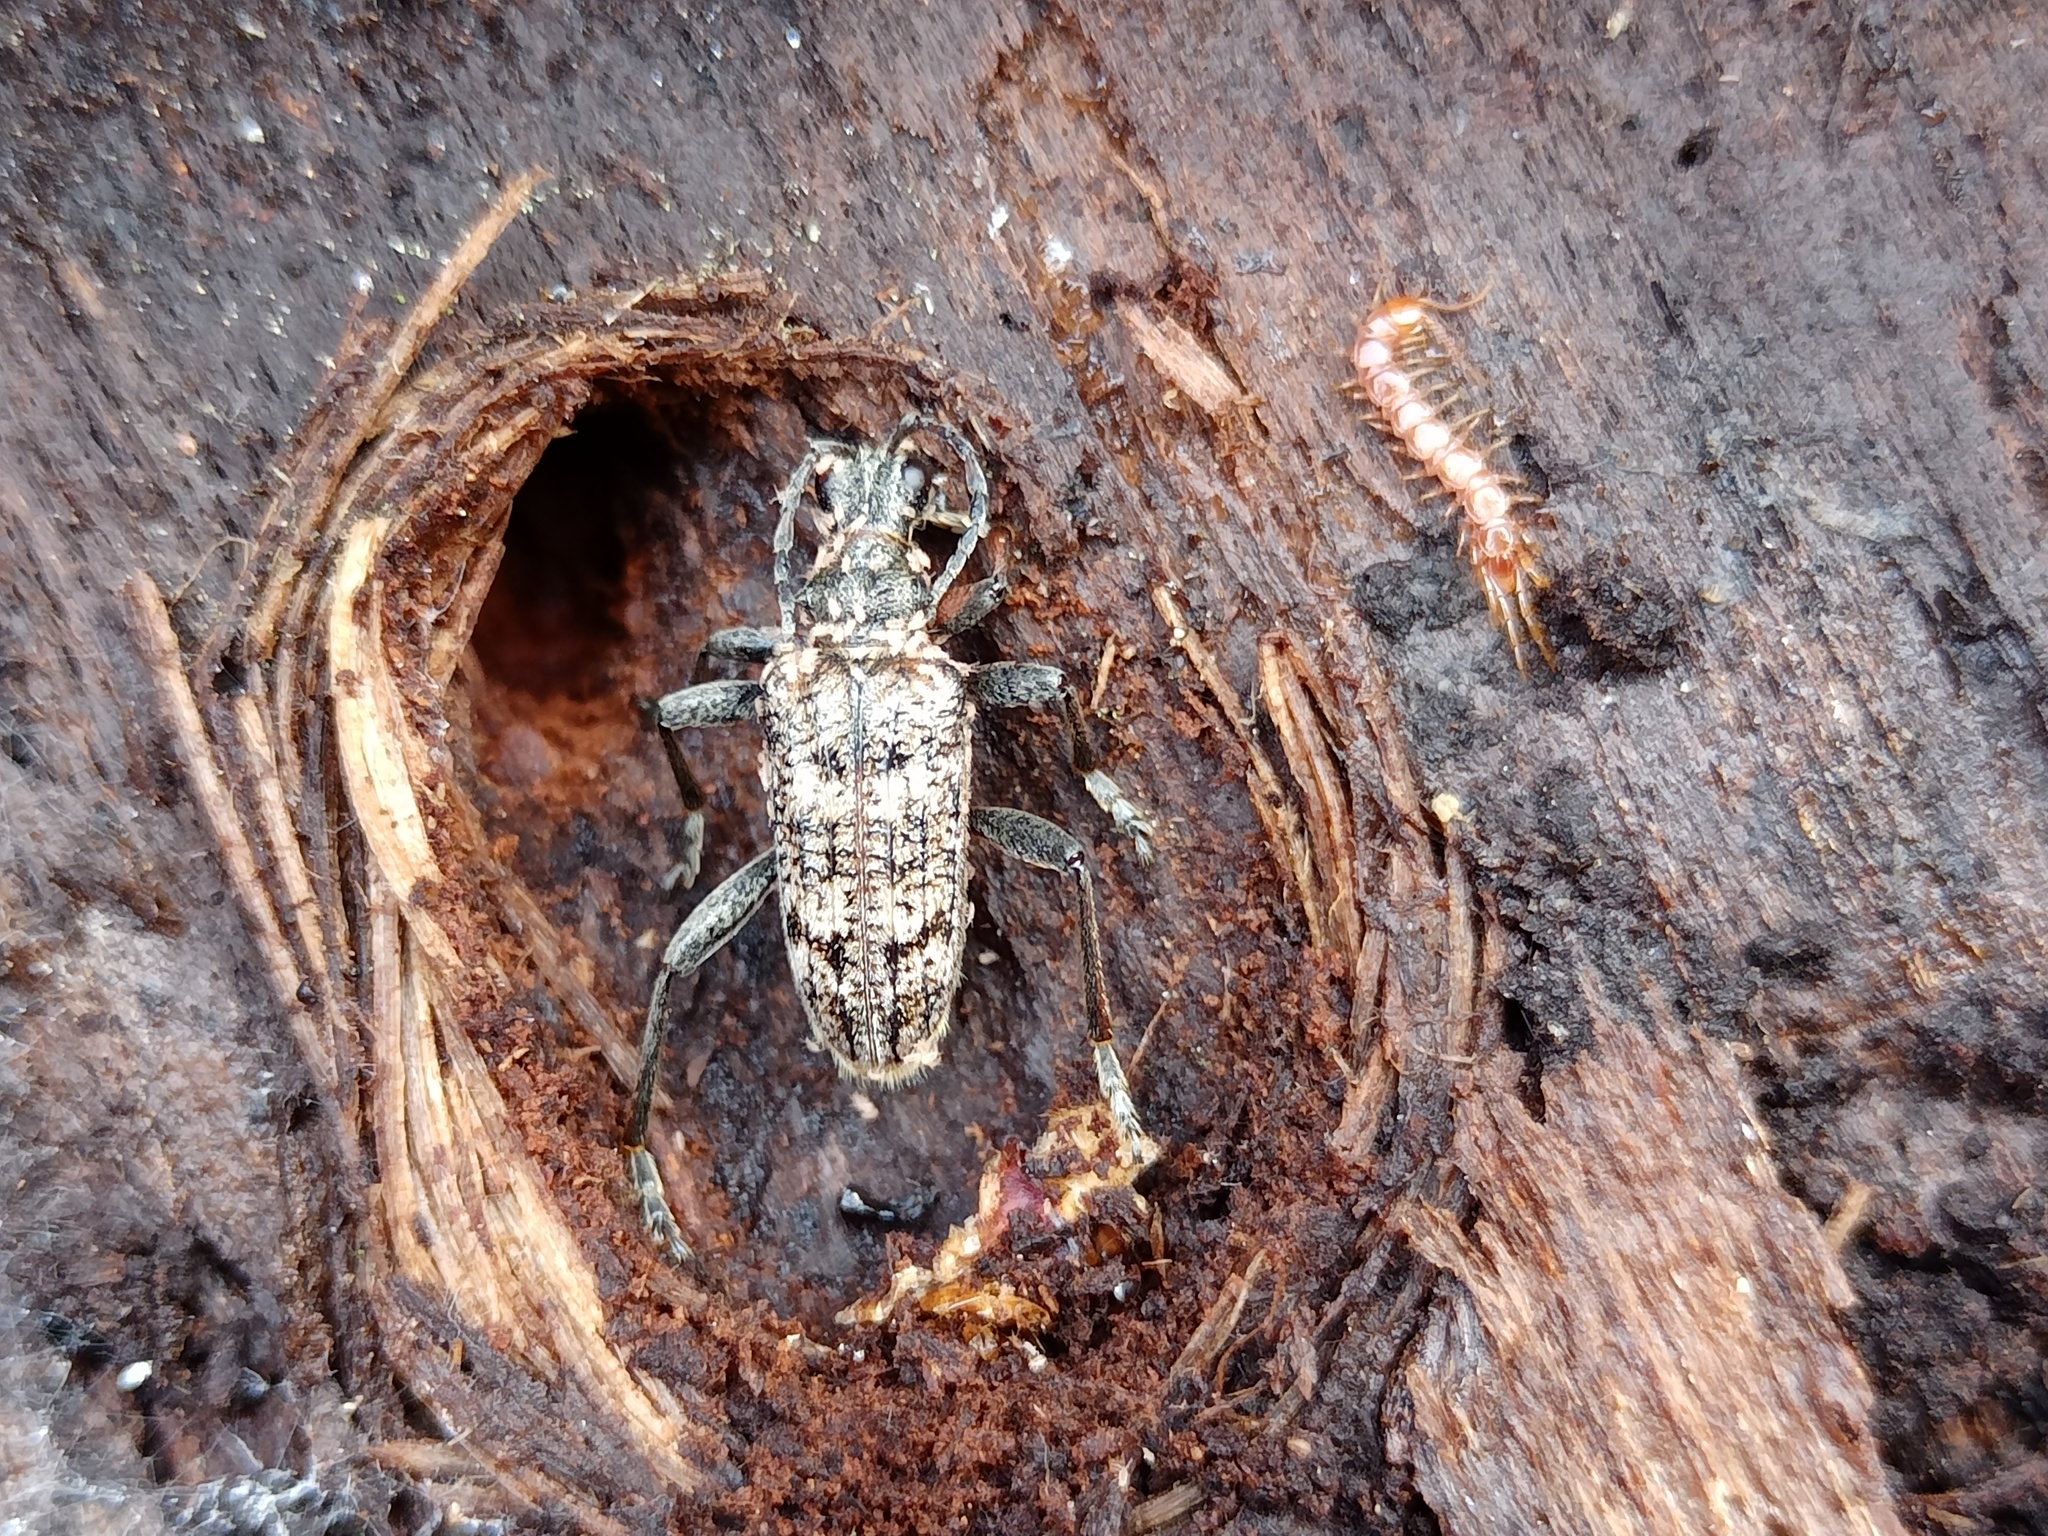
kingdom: Animalia
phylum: Arthropoda
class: Insecta
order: Coleoptera
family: Cerambycidae
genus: Rhagium
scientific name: Rhagium inquisitor
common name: Ribbed pine borer
